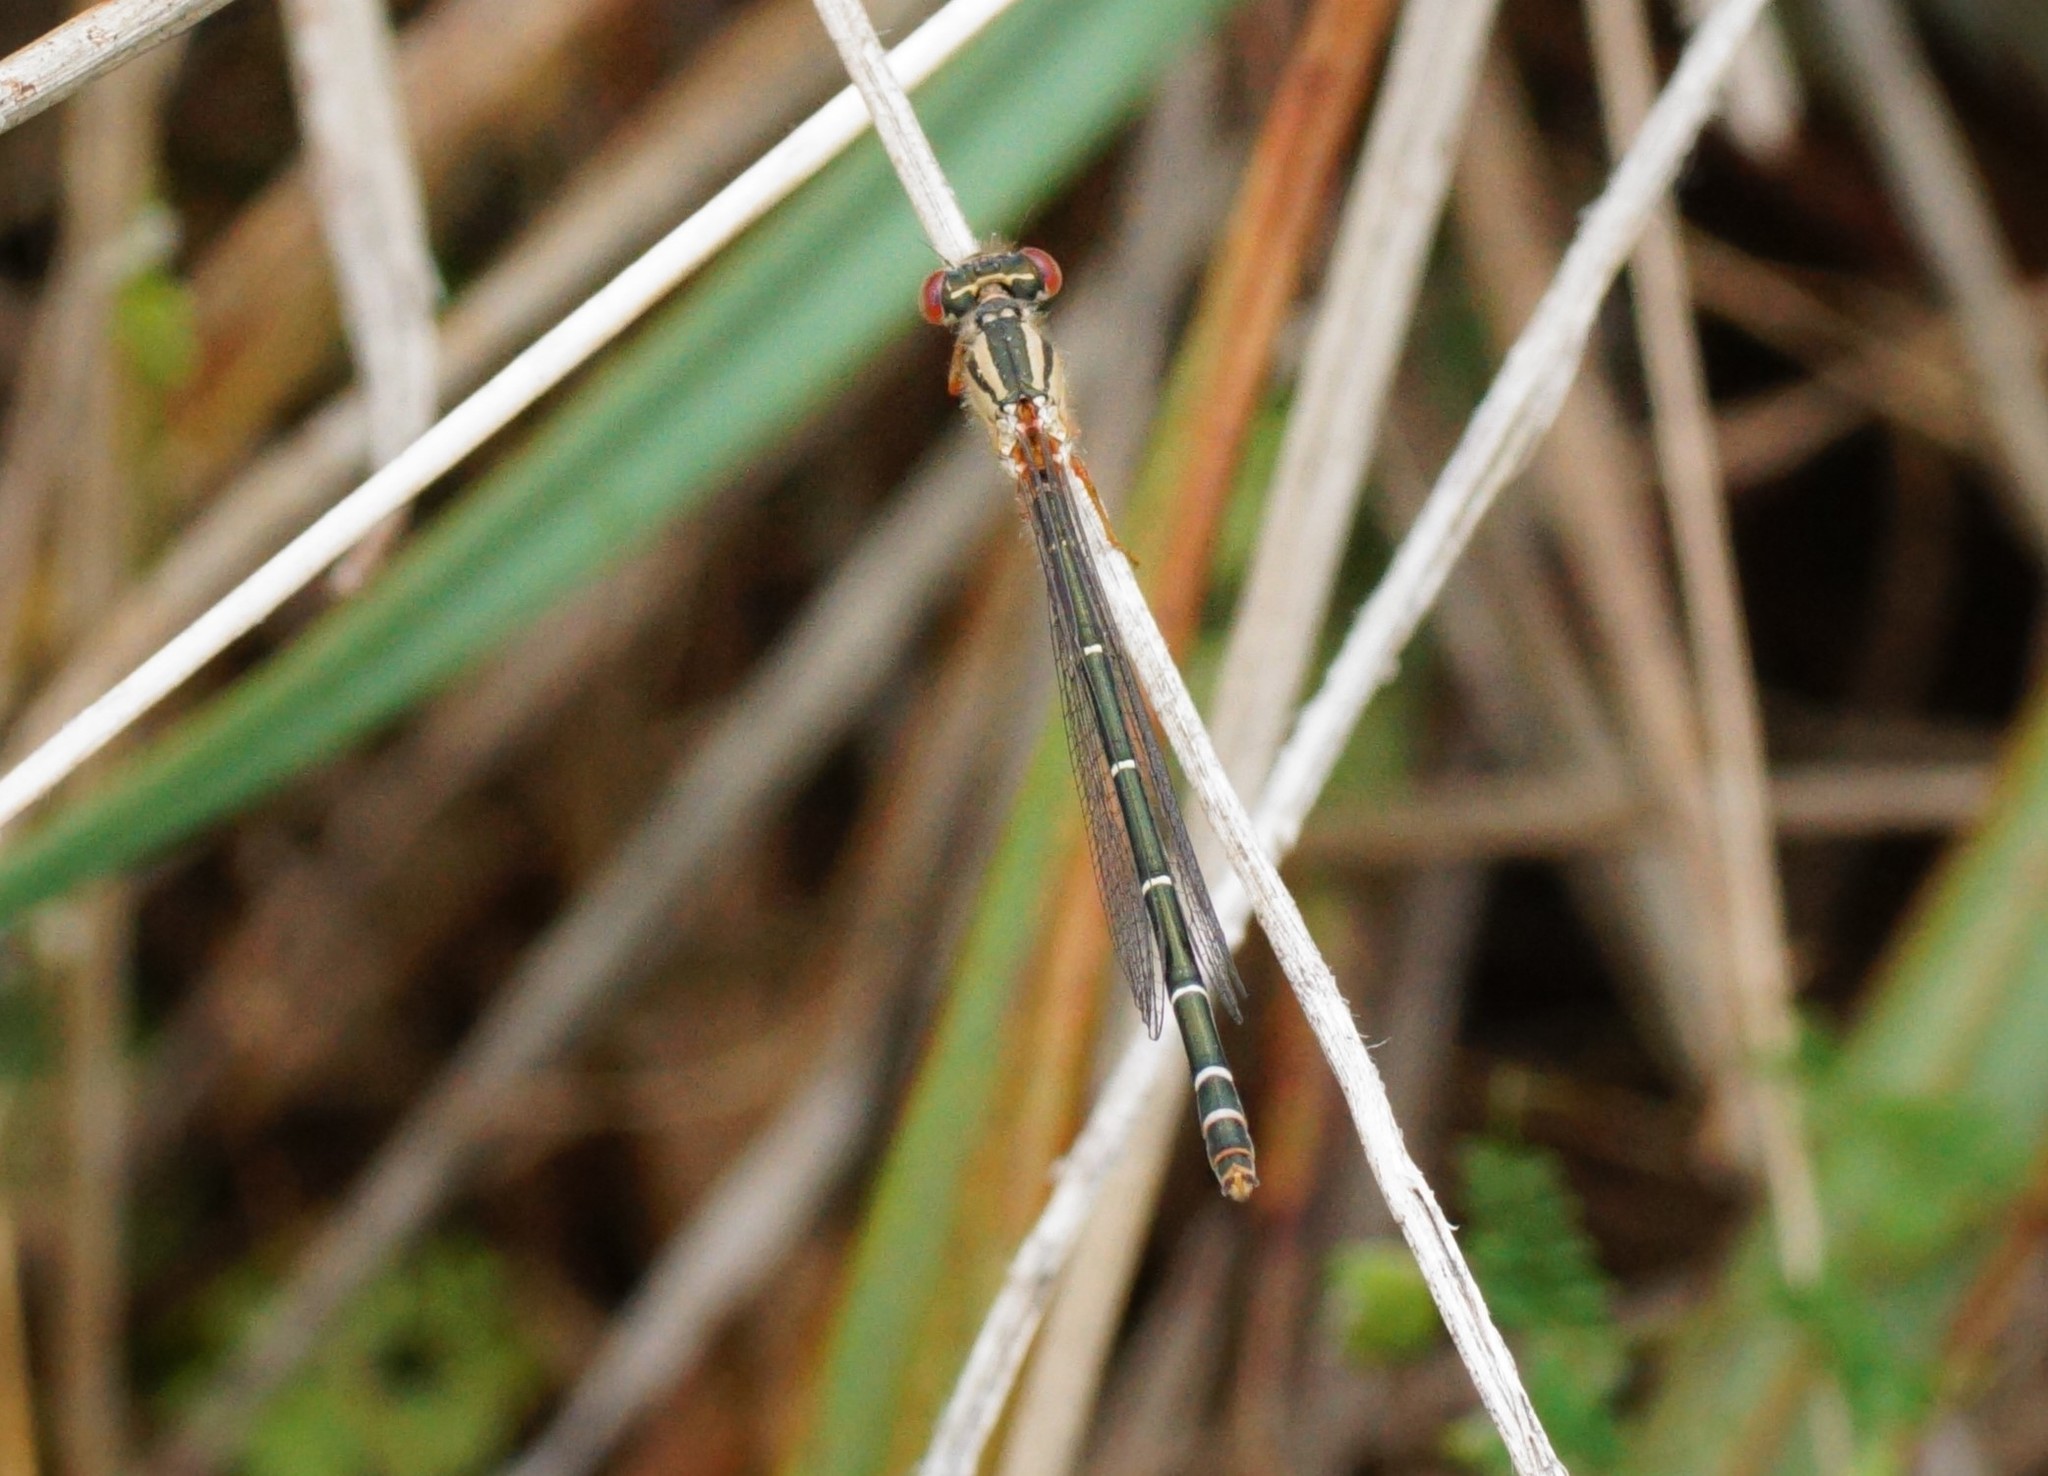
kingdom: Animalia
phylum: Arthropoda
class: Insecta
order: Odonata
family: Coenagrionidae
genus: Xanthagrion
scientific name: Xanthagrion erythroneurum
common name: Red and blue damsel
